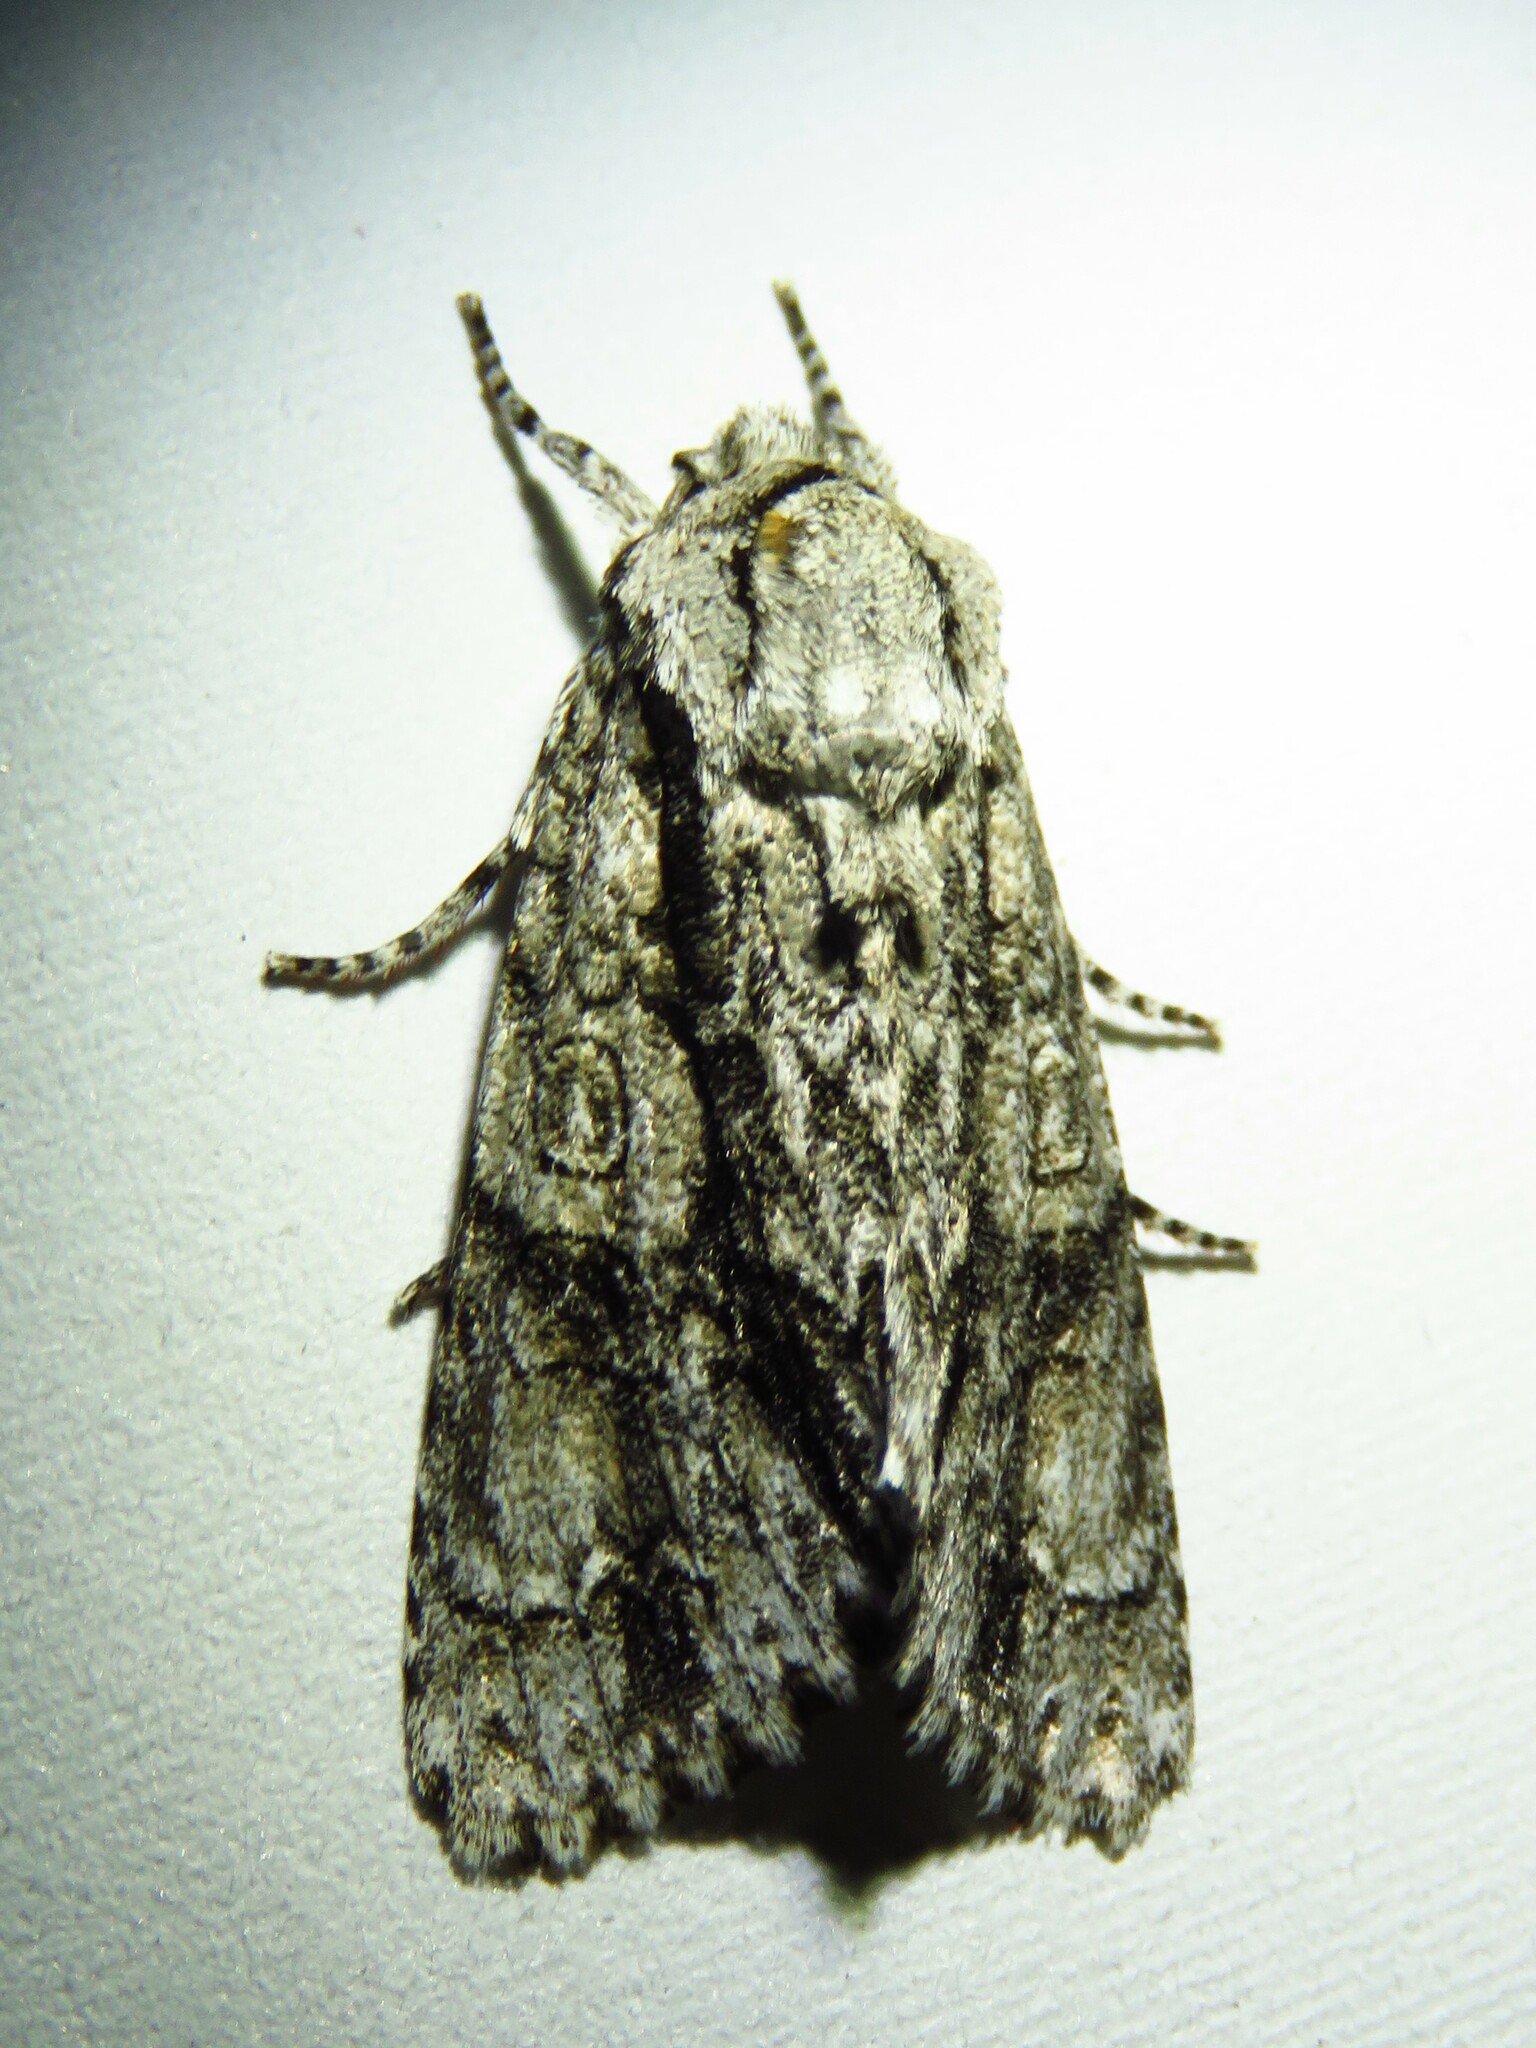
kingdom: Animalia
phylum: Arthropoda
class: Insecta
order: Lepidoptera
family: Noctuidae
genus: Acronicta
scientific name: Acronicta atristrigatus
